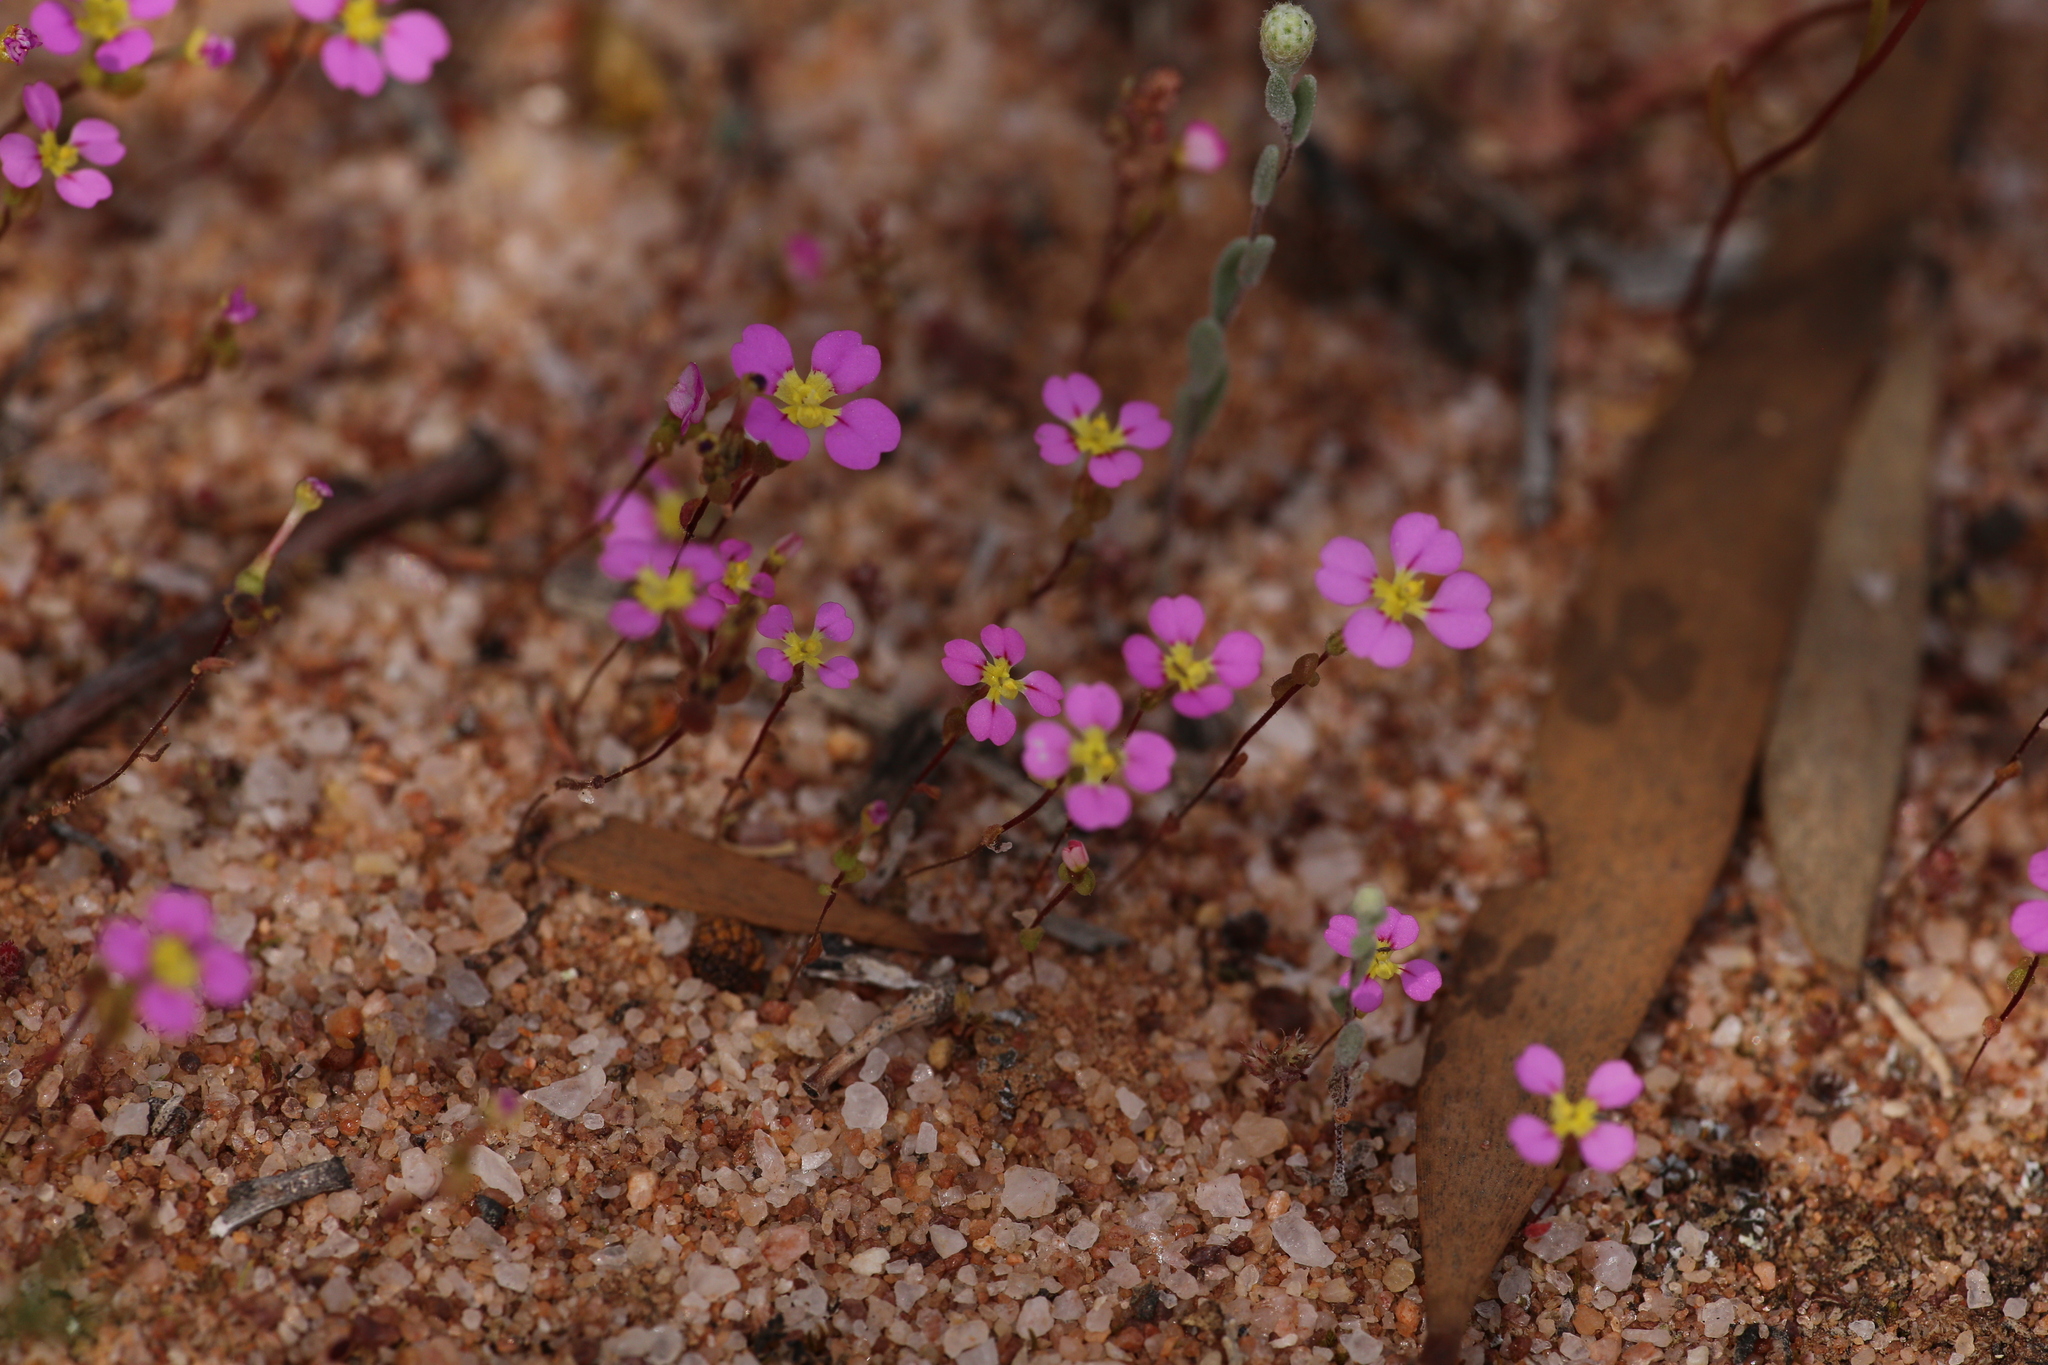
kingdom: Plantae
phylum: Tracheophyta
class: Magnoliopsida
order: Asterales
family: Stylidiaceae
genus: Levenhookia
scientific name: Levenhookia leptantha
